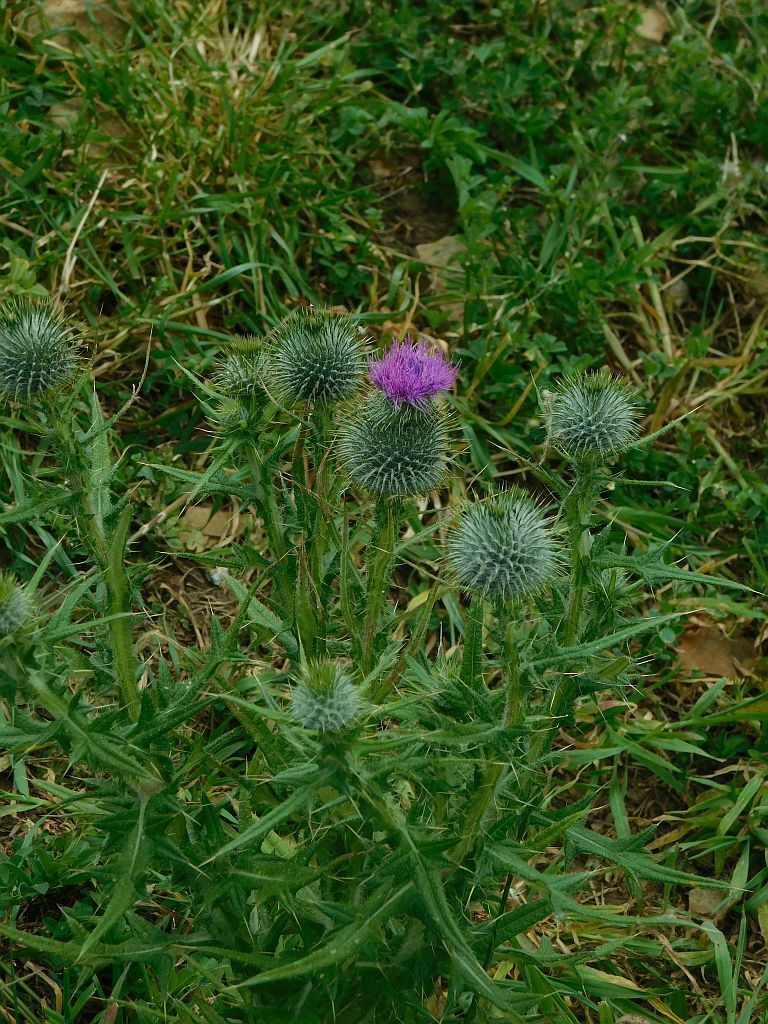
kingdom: Plantae
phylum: Tracheophyta
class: Magnoliopsida
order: Asterales
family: Asteraceae
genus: Cirsium
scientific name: Cirsium vulgare
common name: Bull thistle
